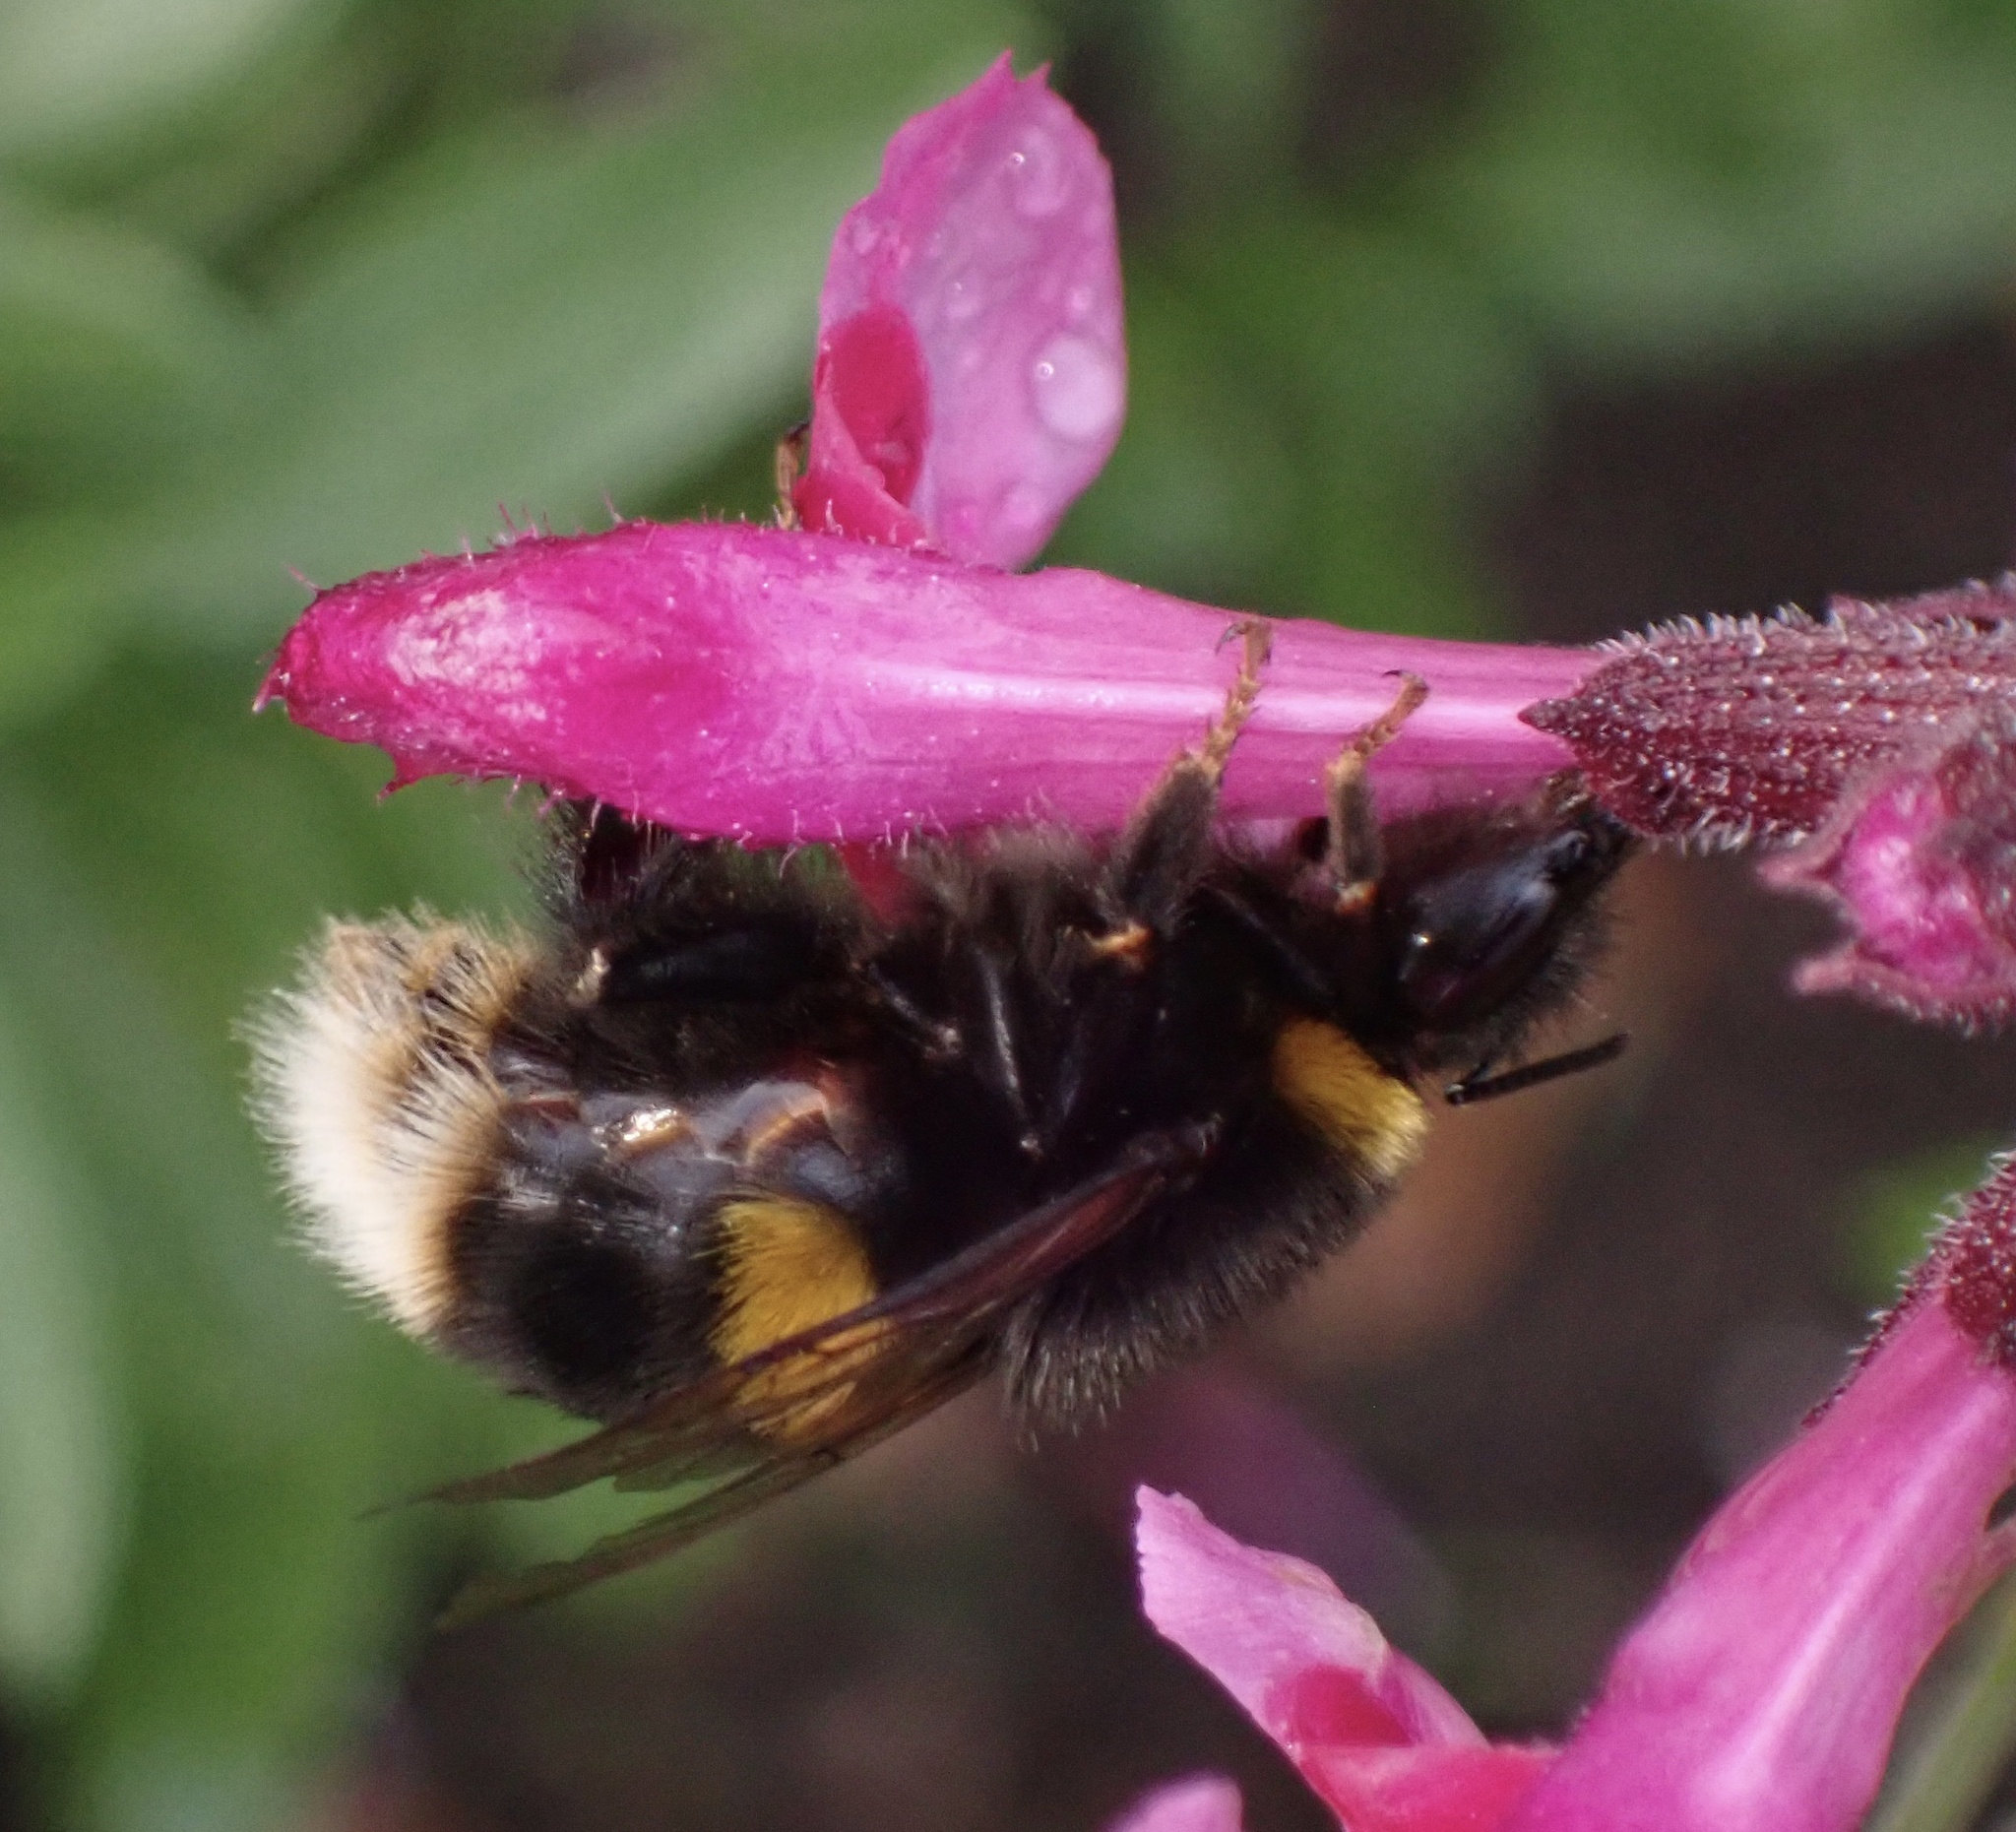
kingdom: Animalia
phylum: Arthropoda
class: Insecta
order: Hymenoptera
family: Apidae
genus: Bombus
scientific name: Bombus terrestris
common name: Buff-tailed bumblebee
